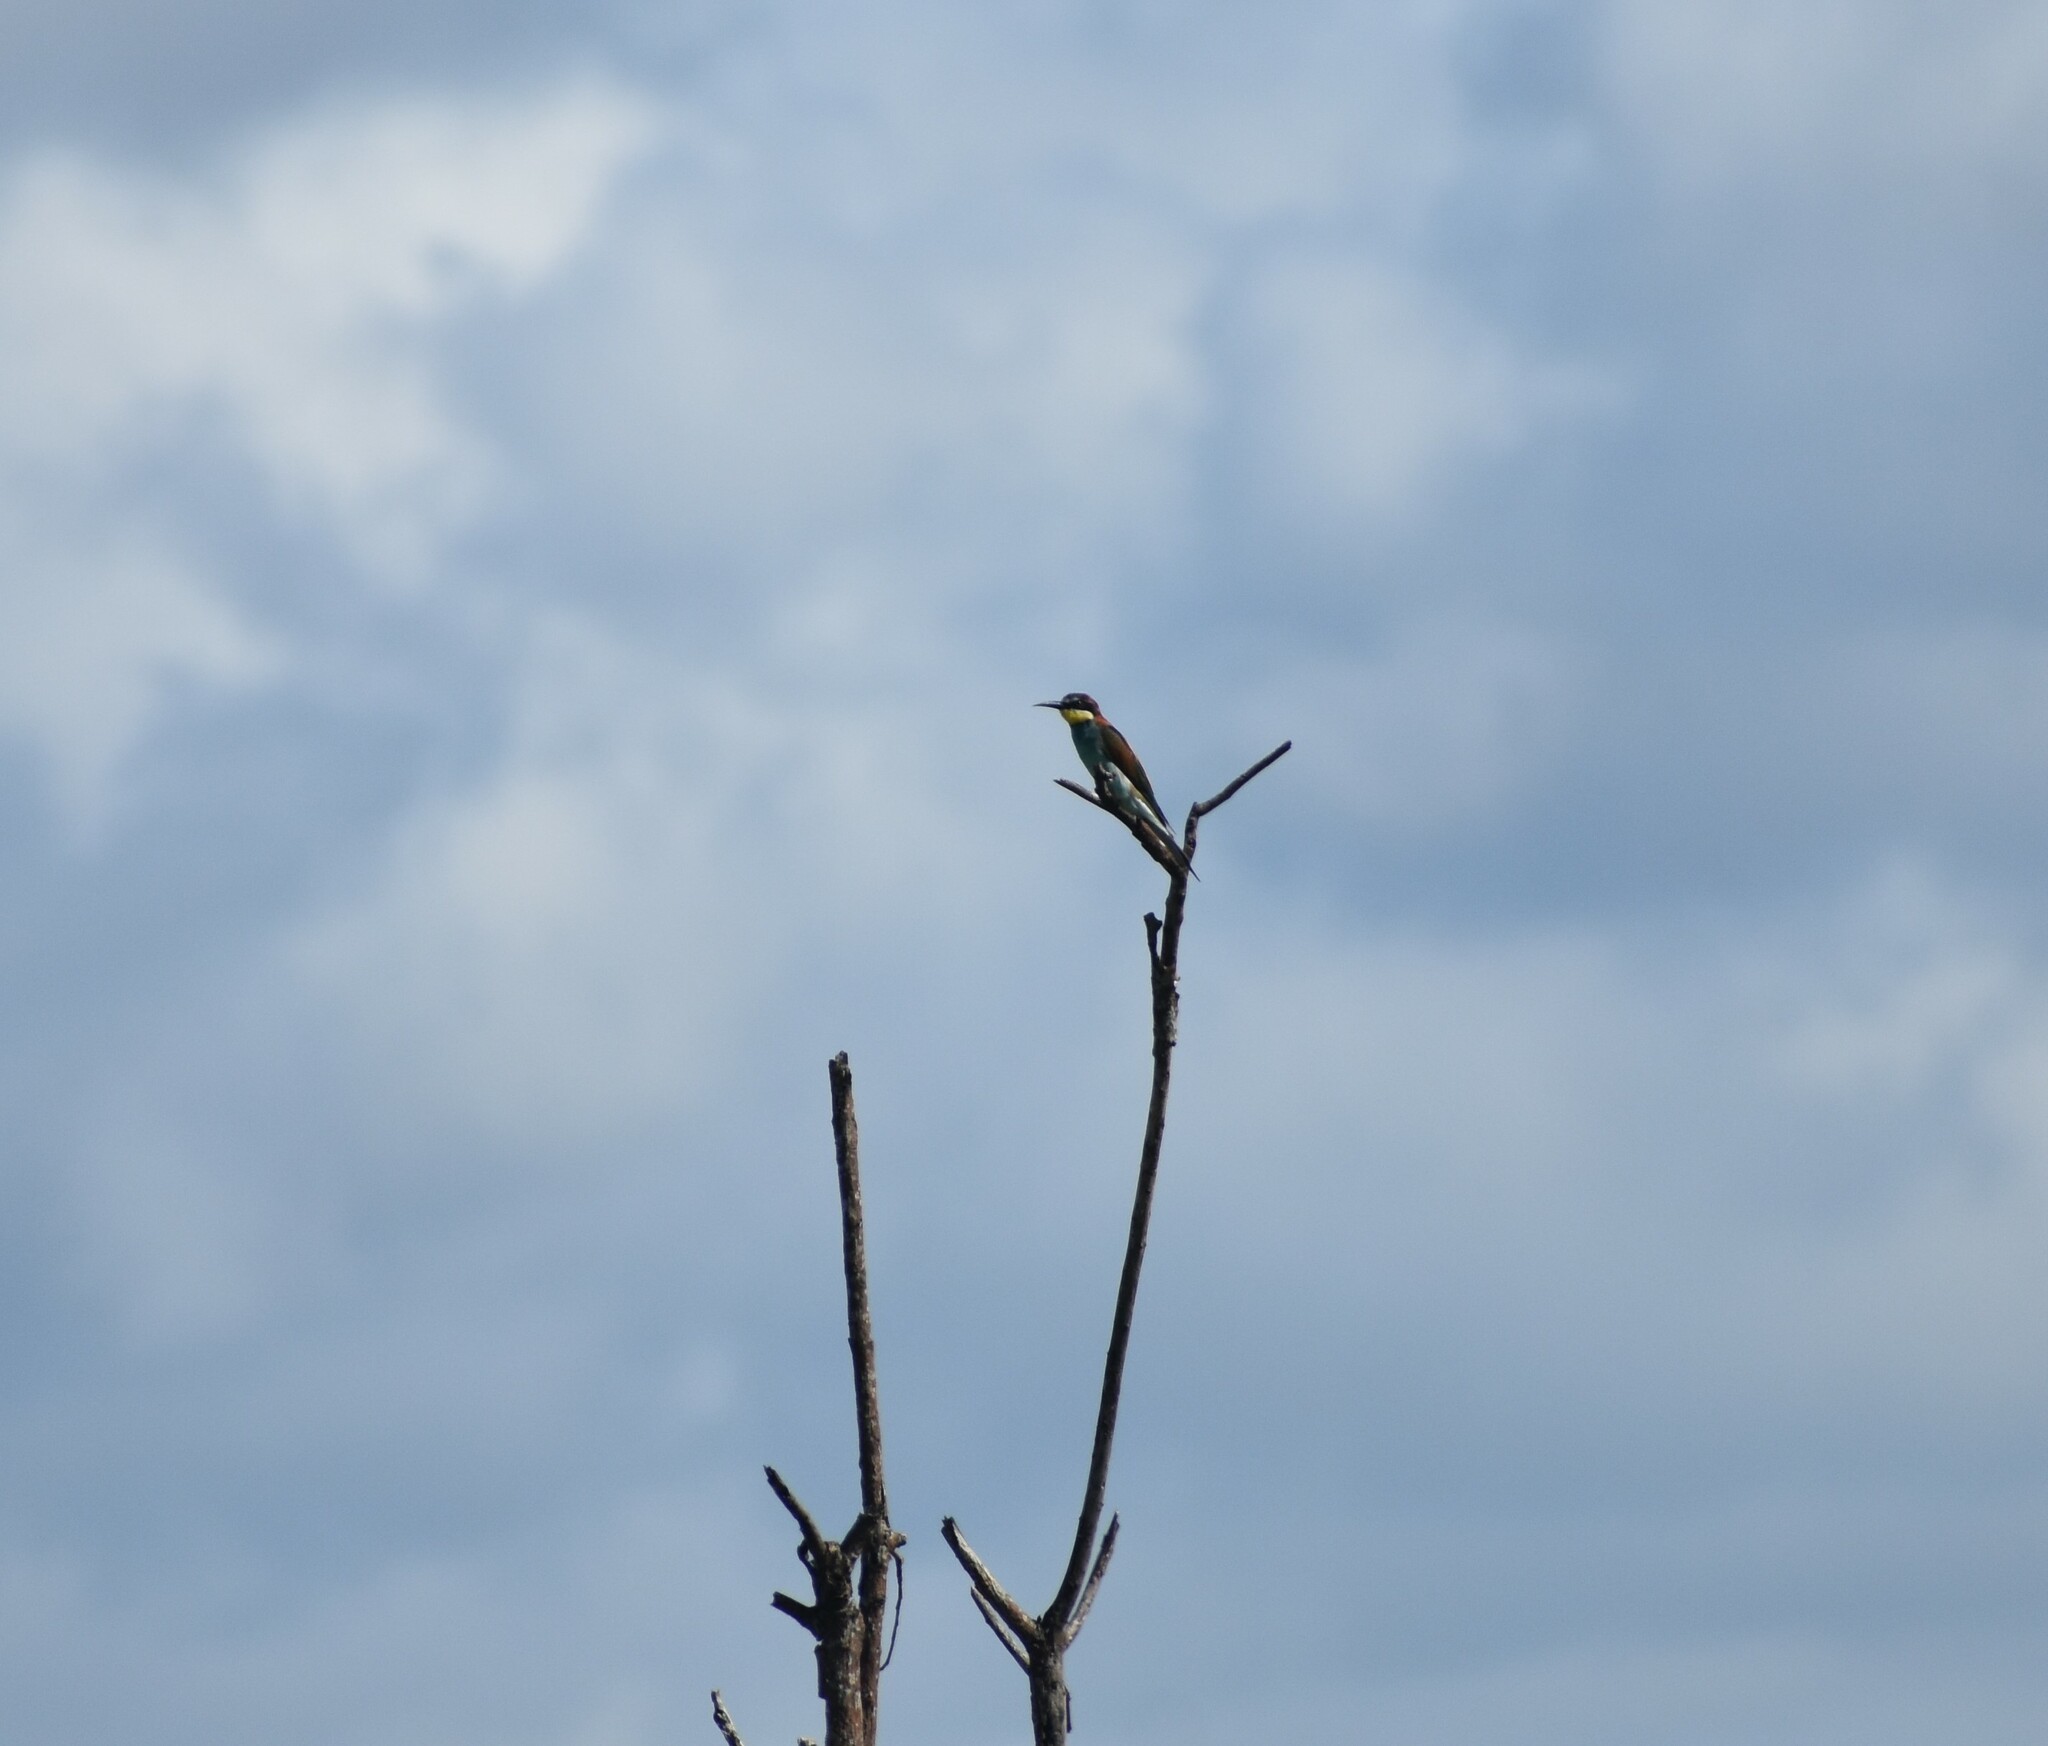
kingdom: Animalia
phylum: Chordata
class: Aves
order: Coraciiformes
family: Meropidae
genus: Merops
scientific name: Merops apiaster
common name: European bee-eater
